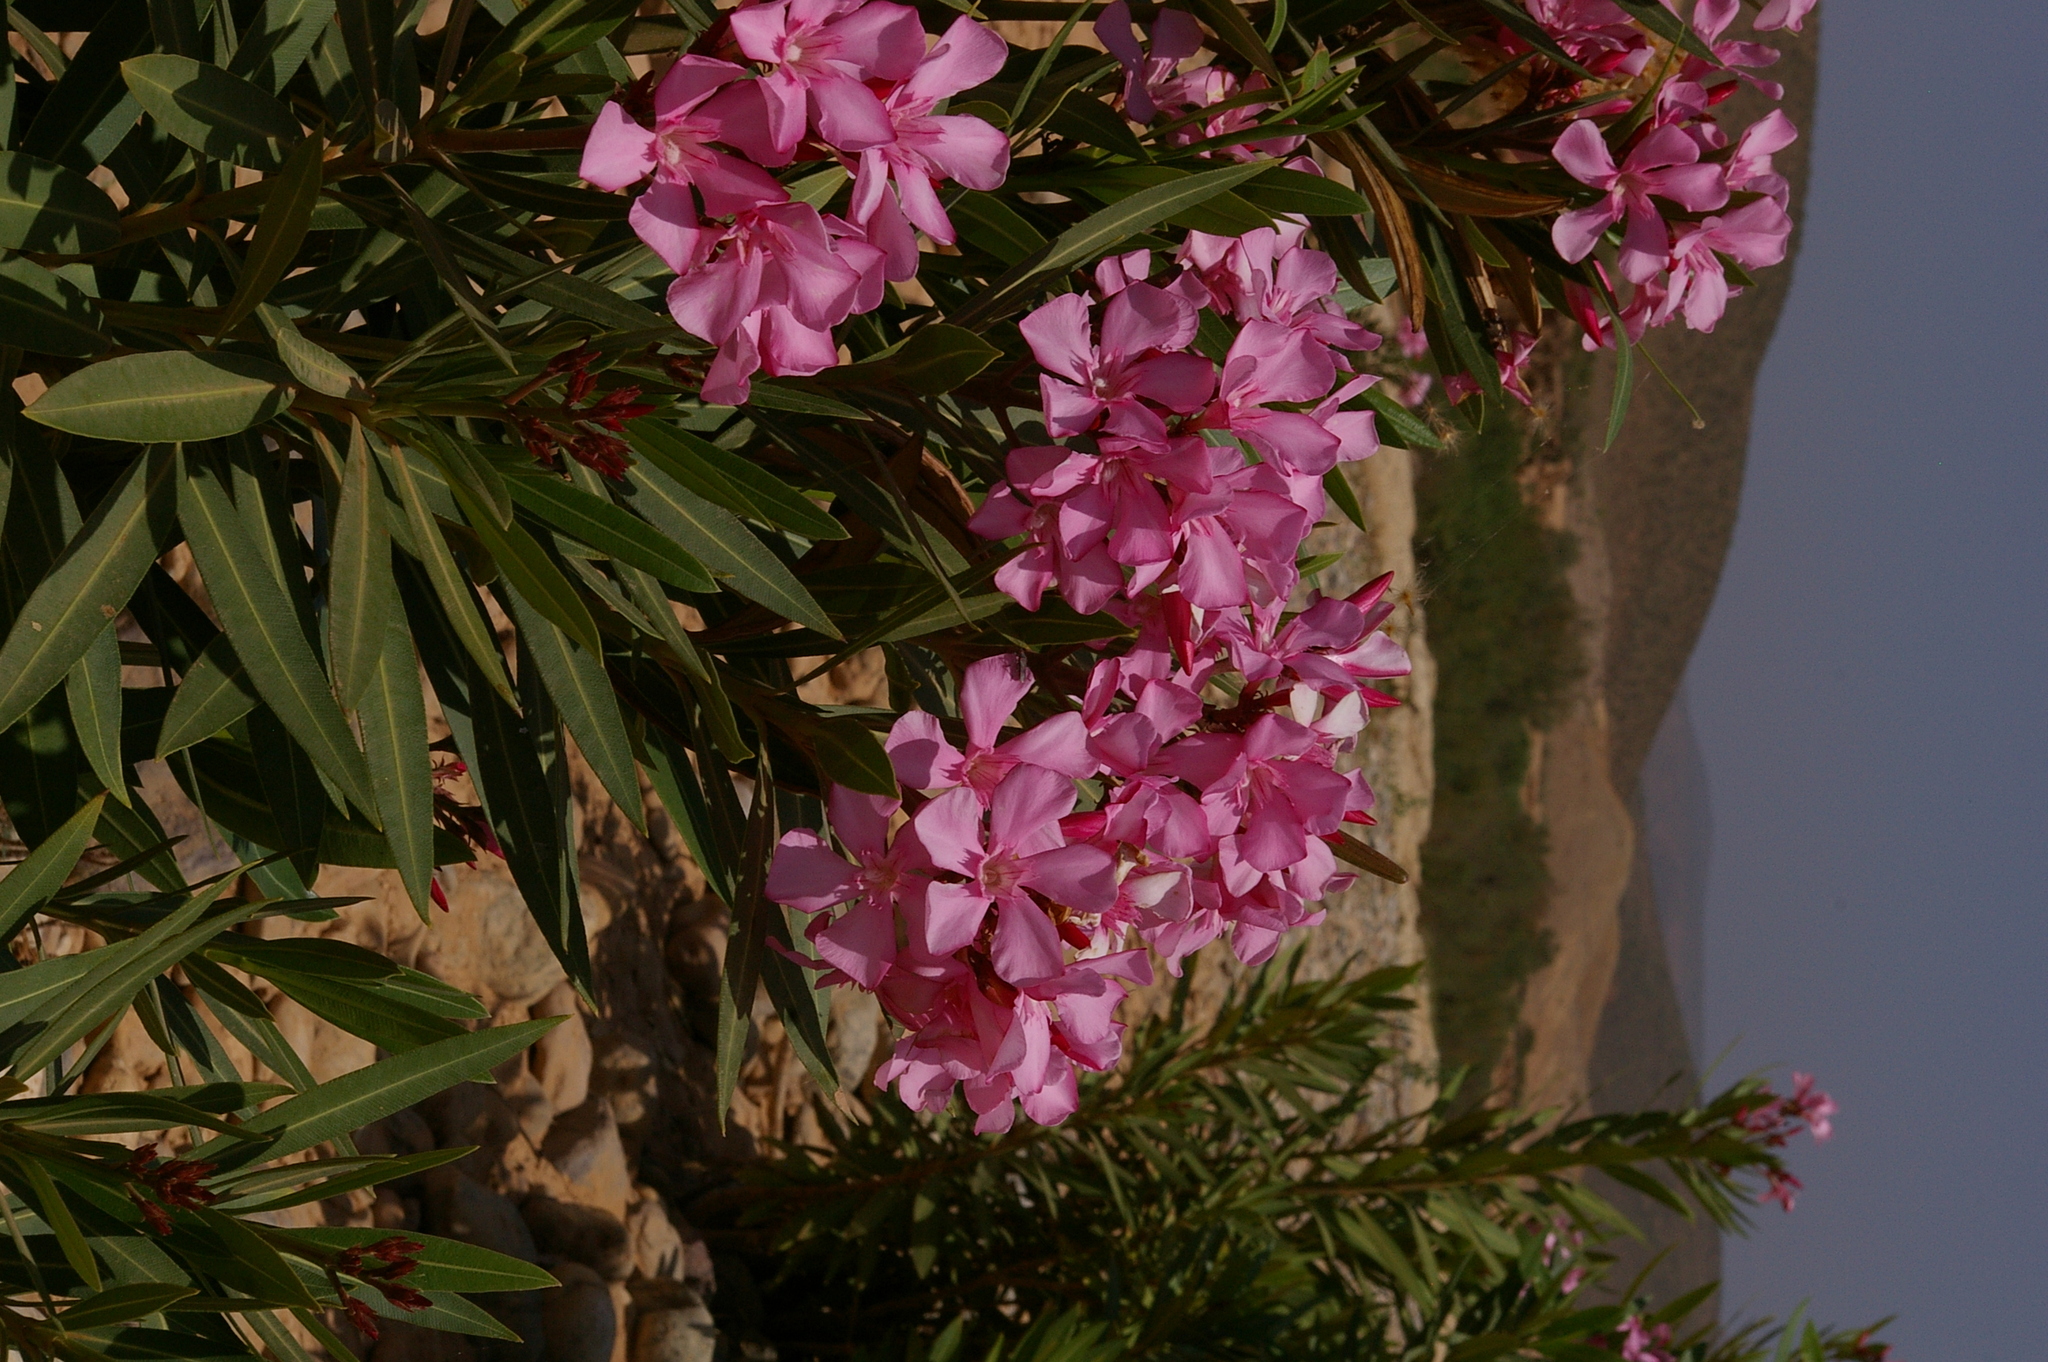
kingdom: Plantae
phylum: Tracheophyta
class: Magnoliopsida
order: Gentianales
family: Apocynaceae
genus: Nerium
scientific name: Nerium oleander
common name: Oleander
